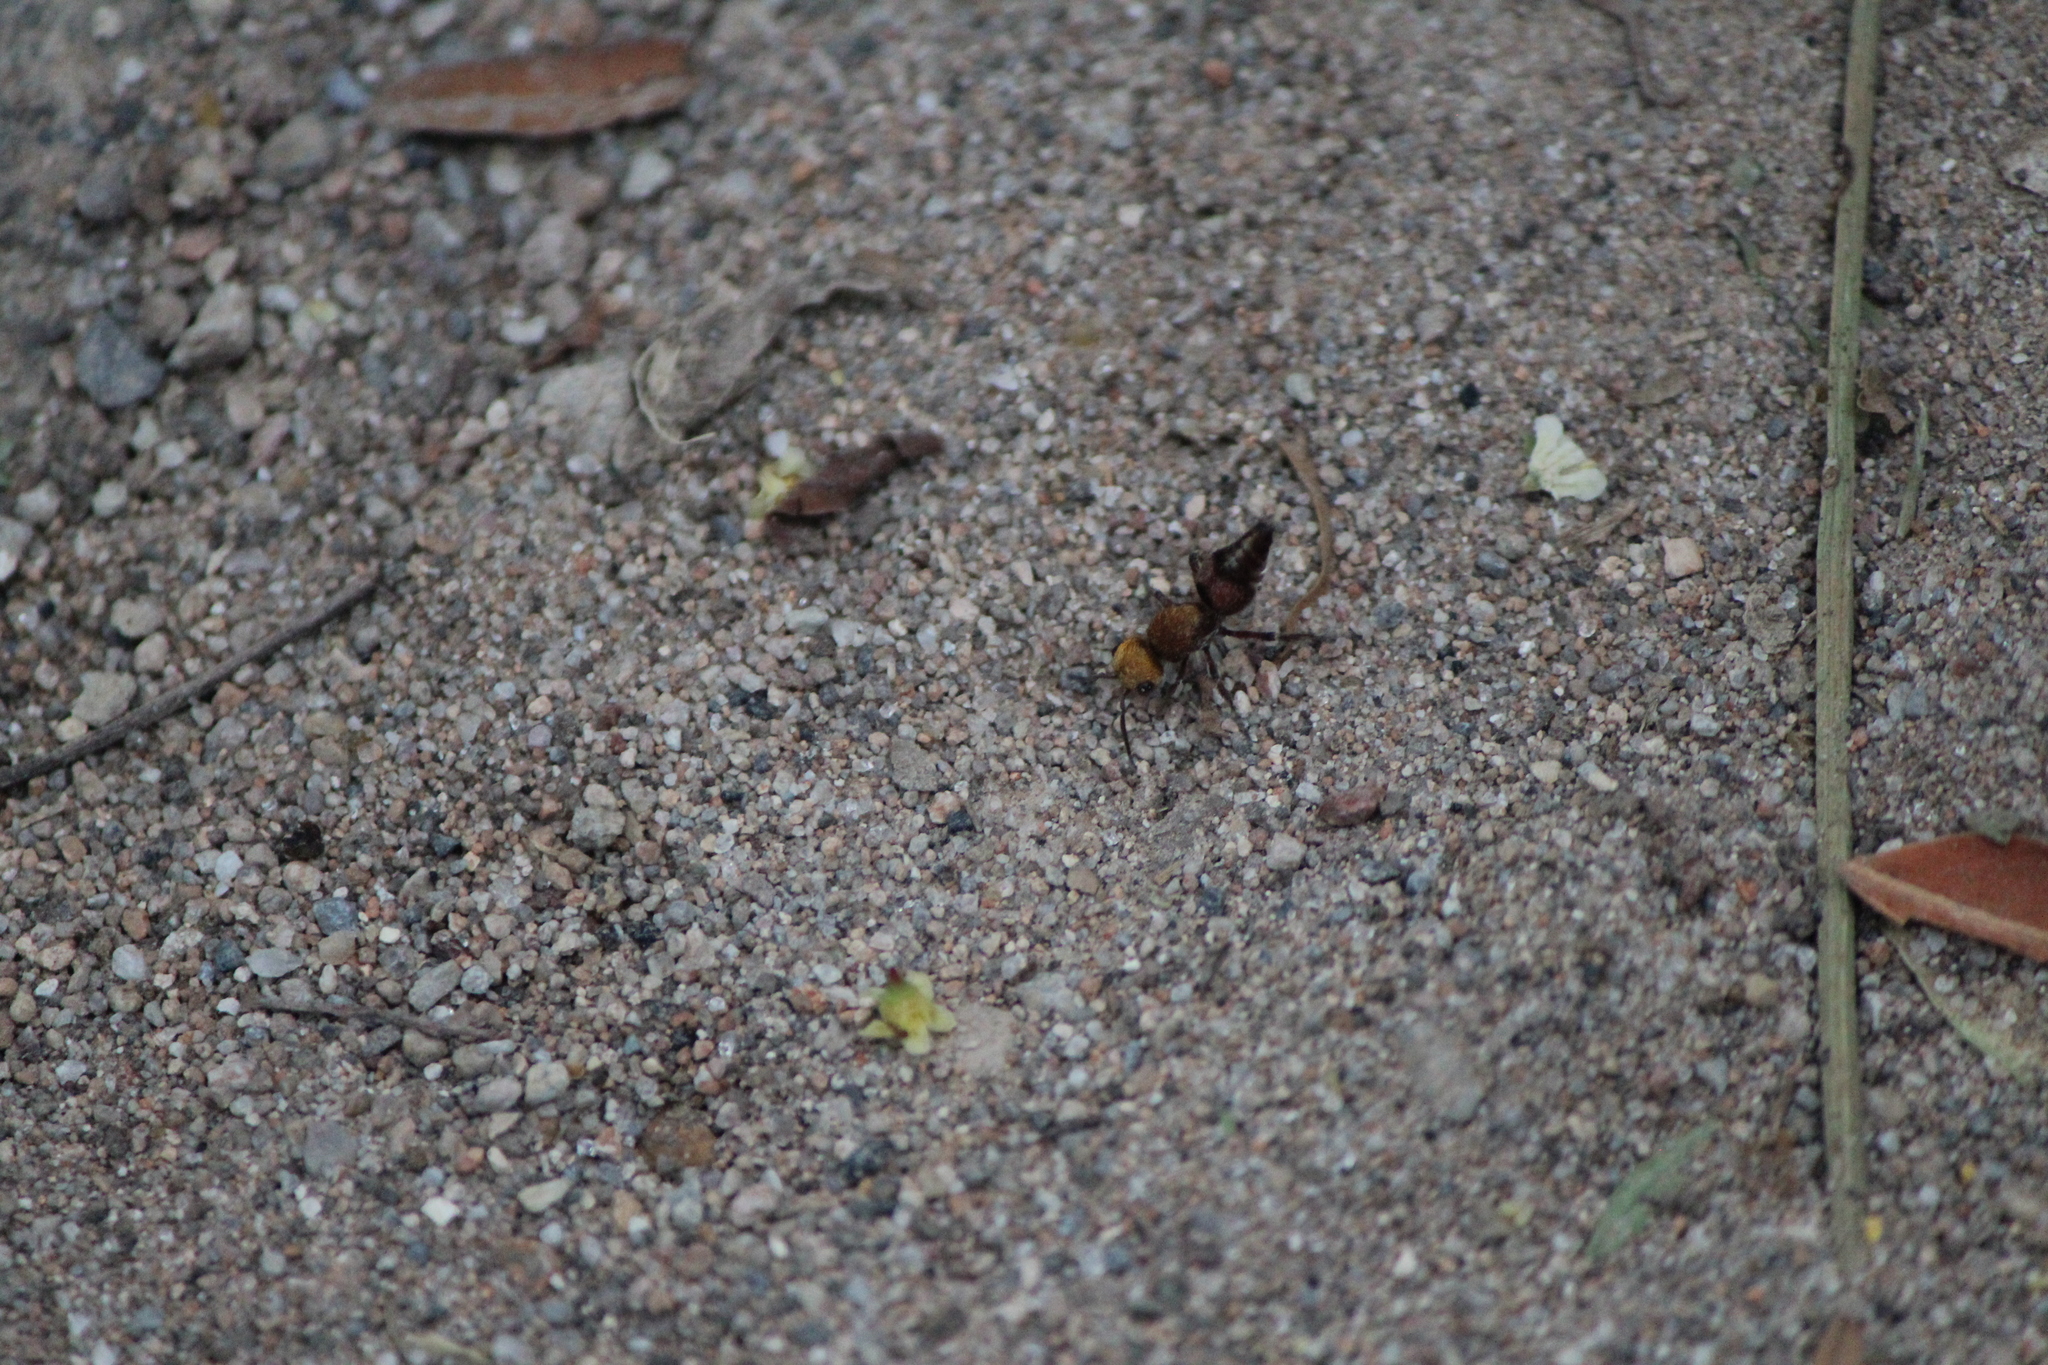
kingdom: Animalia
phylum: Arthropoda
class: Insecta
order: Hymenoptera
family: Mutillidae
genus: Dasymutilla
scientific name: Dasymutilla
